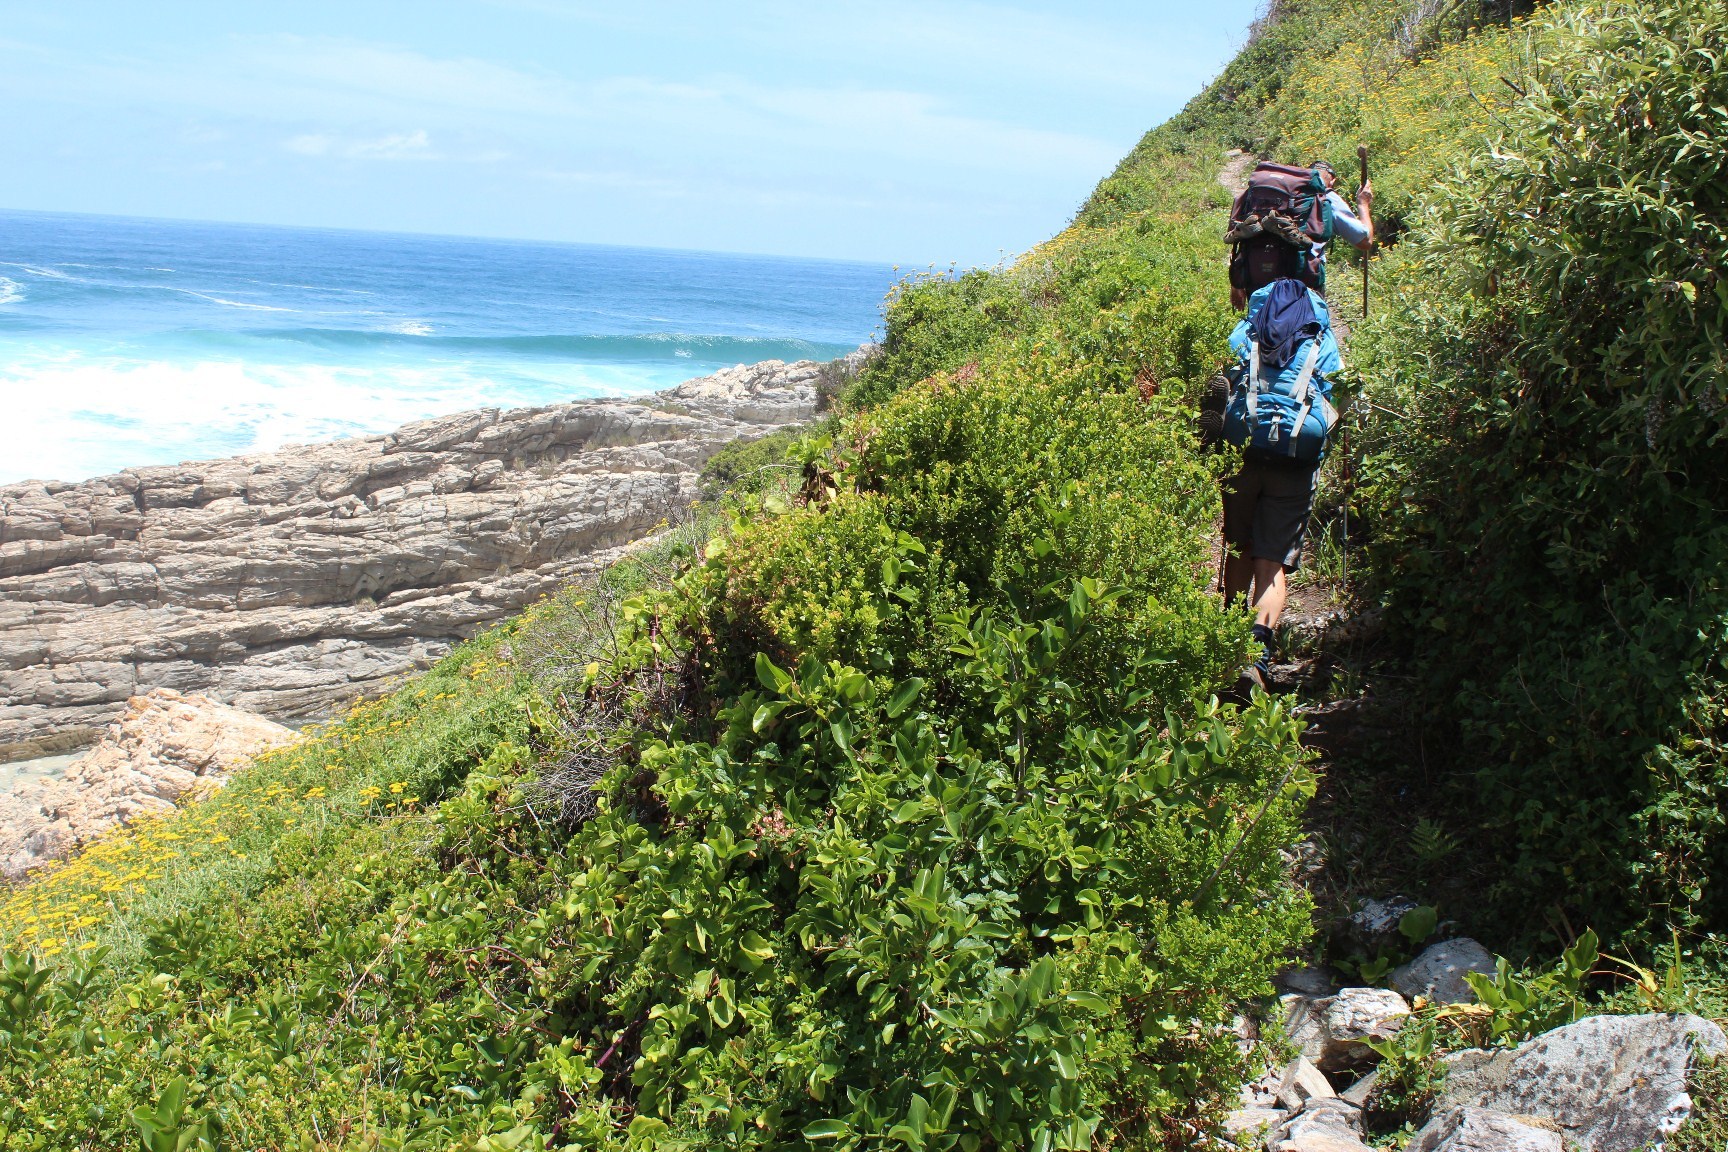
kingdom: Plantae
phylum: Tracheophyta
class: Magnoliopsida
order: Rosales
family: Moraceae
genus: Ficus
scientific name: Ficus burtt-davyi
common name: Scrambling fig
